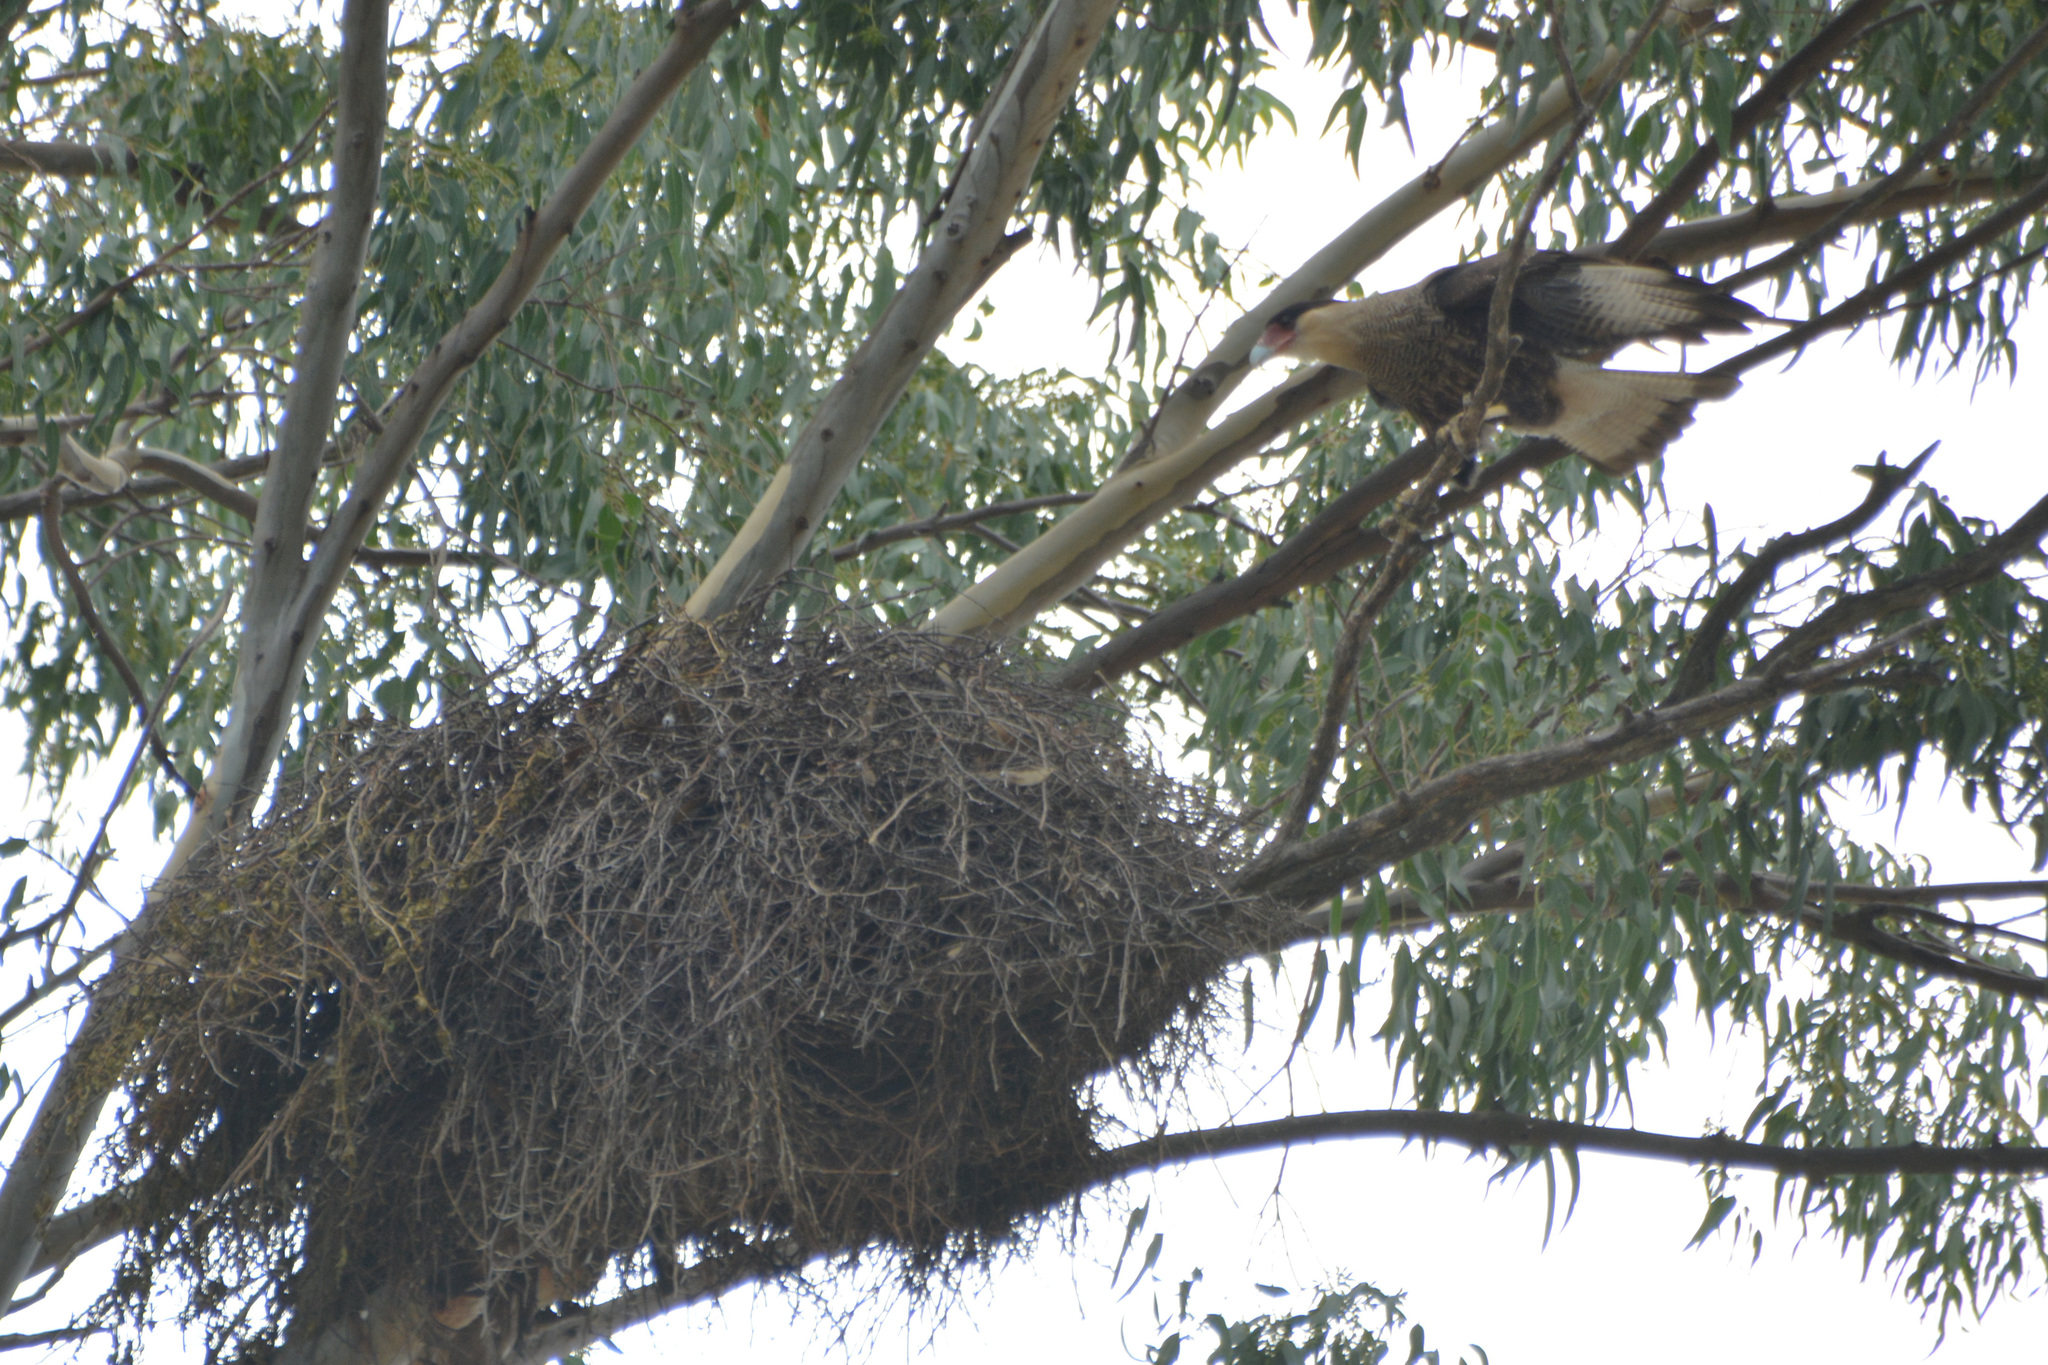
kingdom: Animalia
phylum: Chordata
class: Aves
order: Falconiformes
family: Falconidae
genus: Caracara
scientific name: Caracara plancus
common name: Southern caracara
